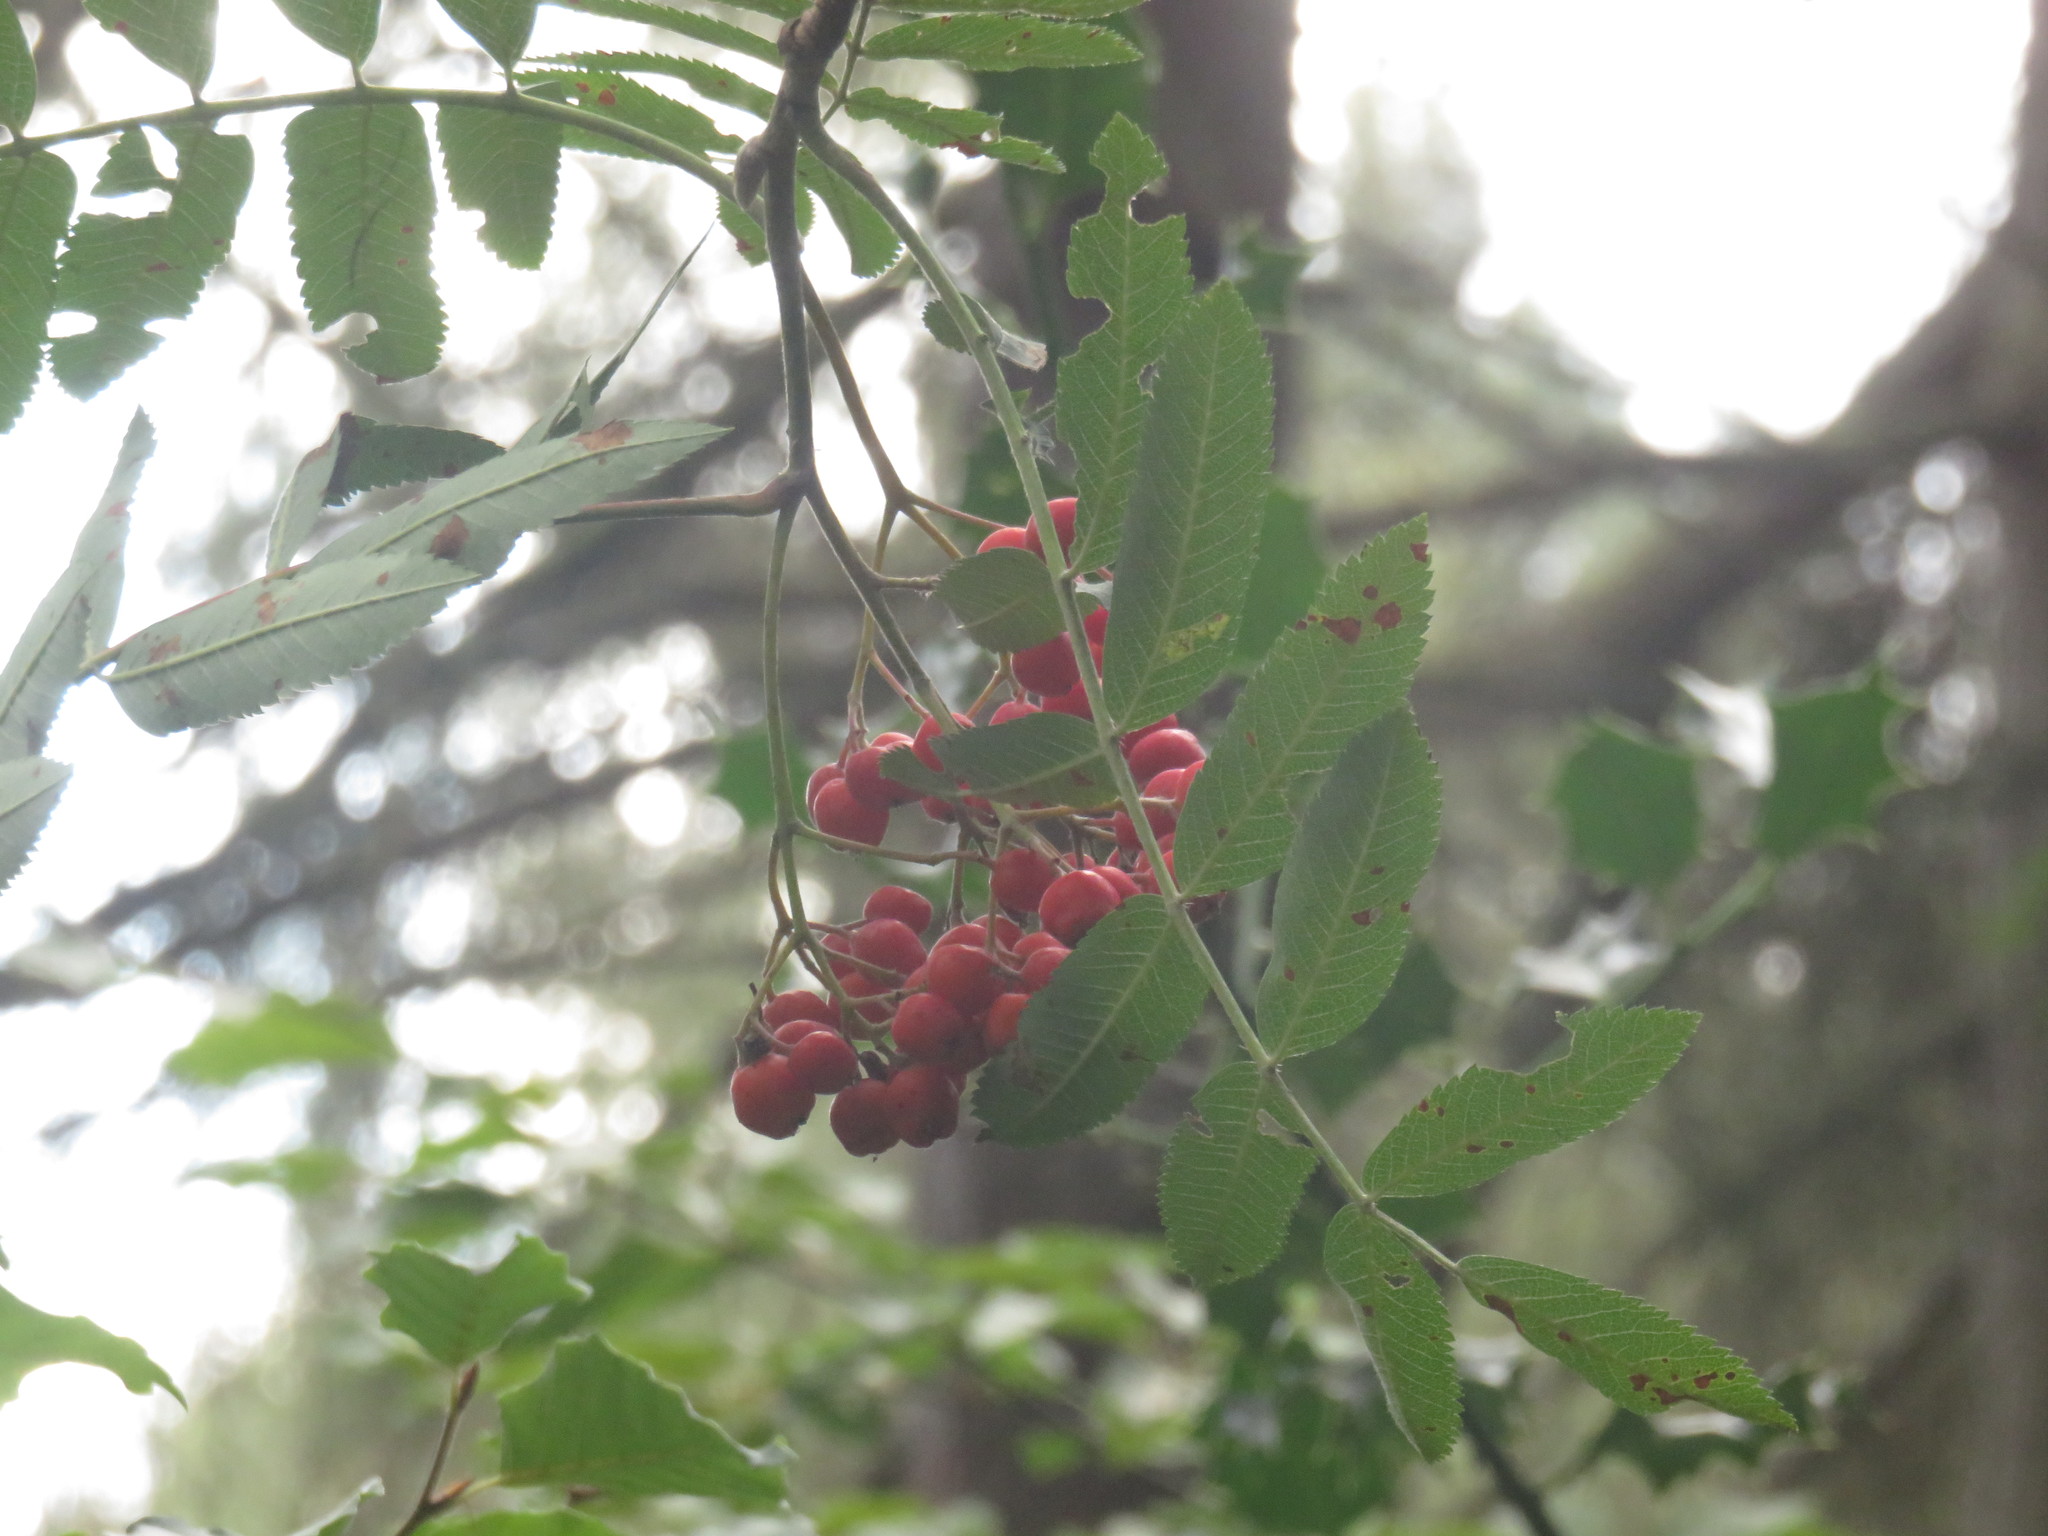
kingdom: Plantae
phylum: Tracheophyta
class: Magnoliopsida
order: Rosales
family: Rosaceae
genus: Sorbus
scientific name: Sorbus aucuparia
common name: Rowan
